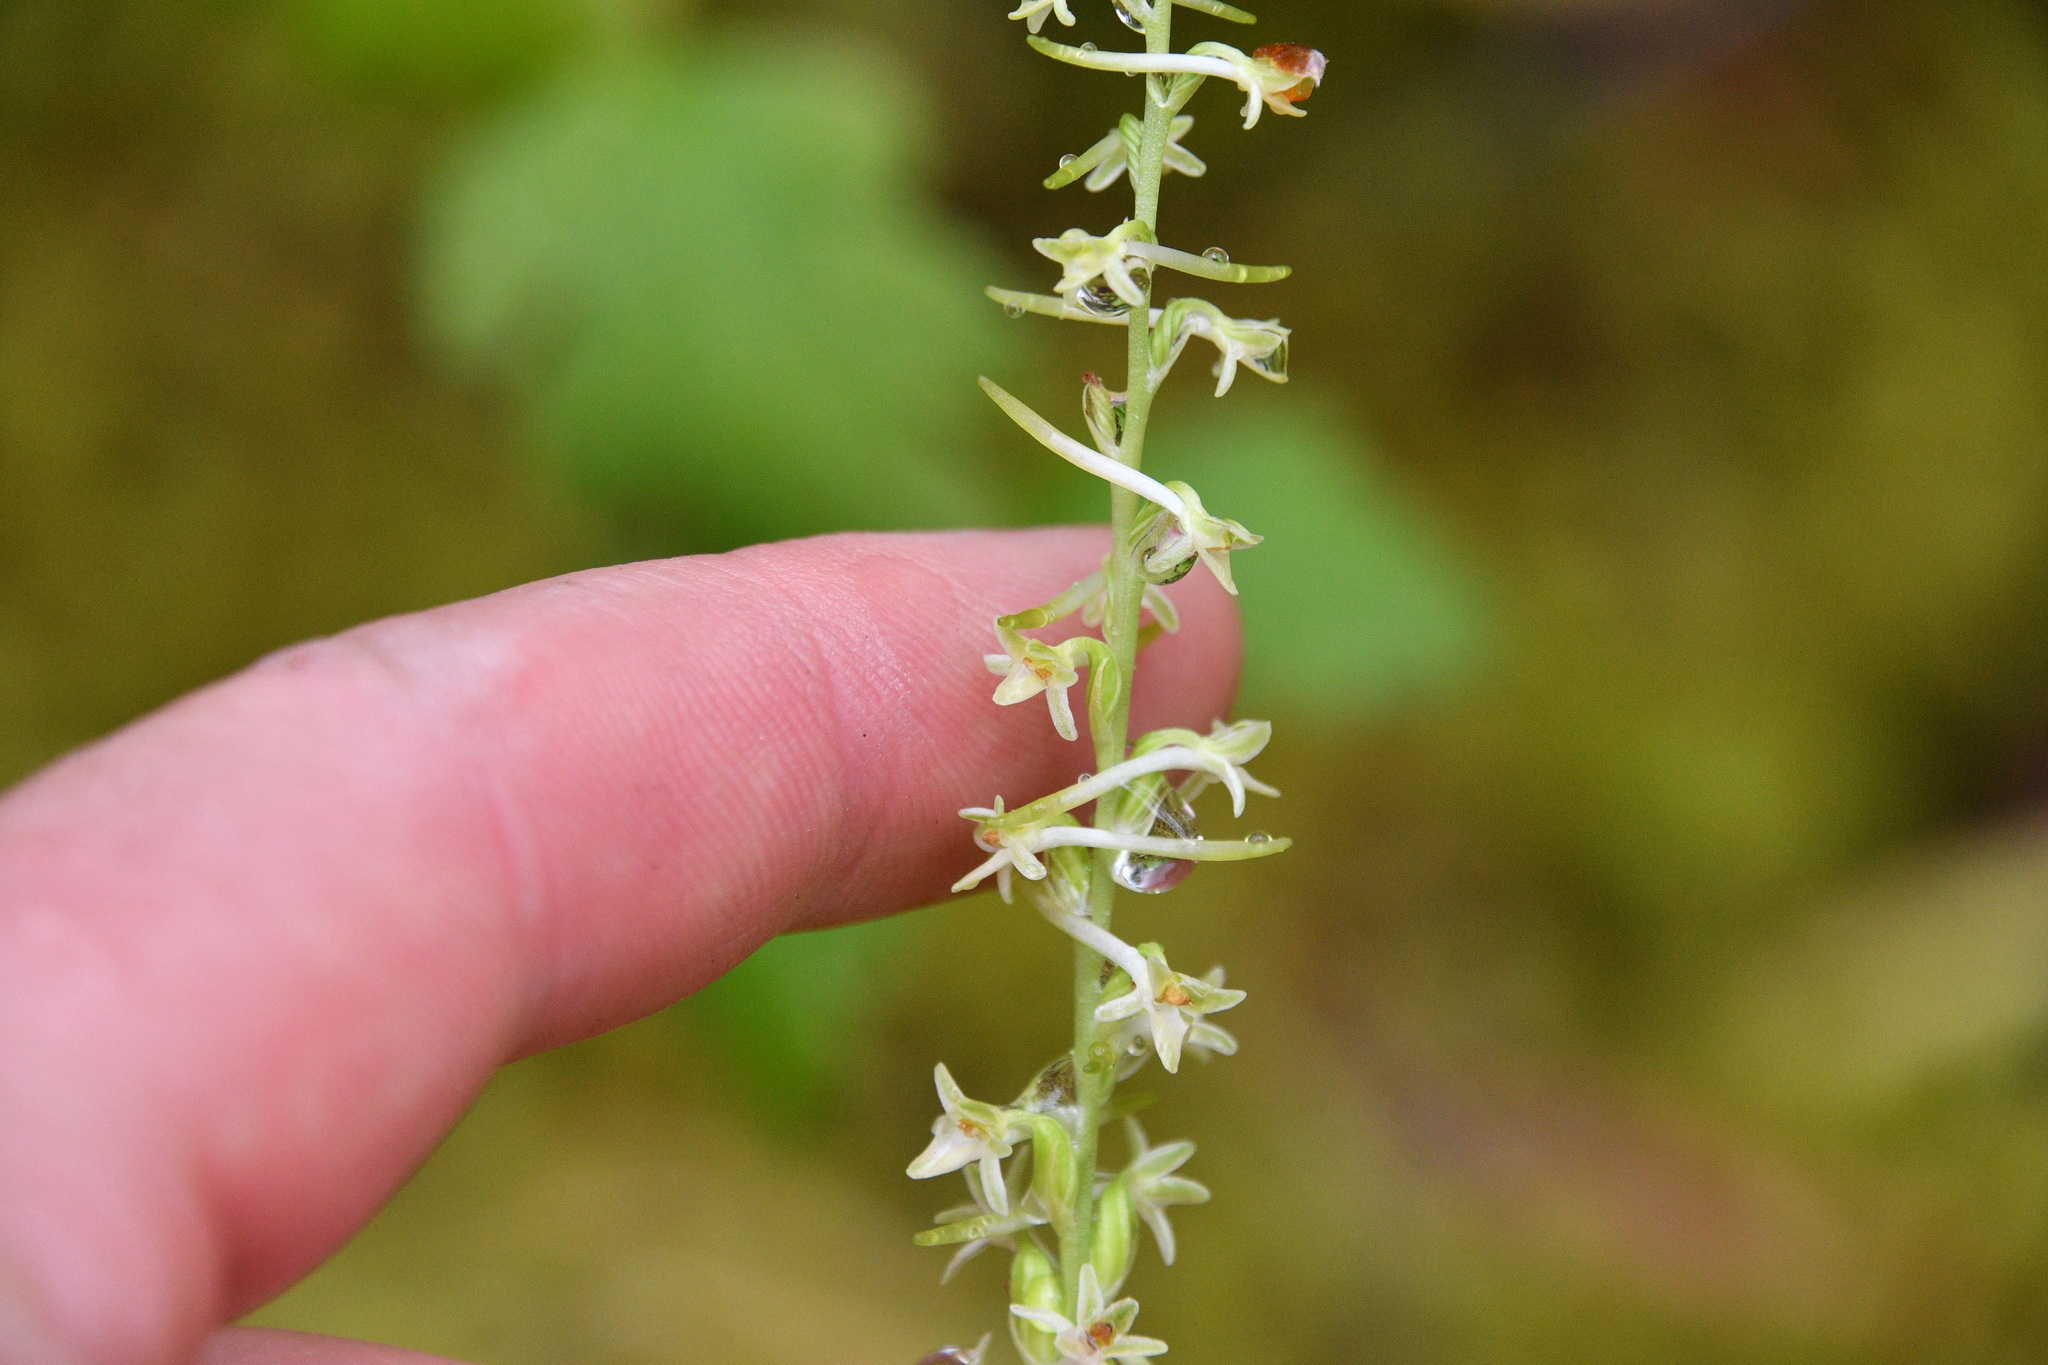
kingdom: Plantae
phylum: Tracheophyta
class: Liliopsida
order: Asparagales
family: Orchidaceae
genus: Platanthera
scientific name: Platanthera transversa
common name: Royal rein orchid
